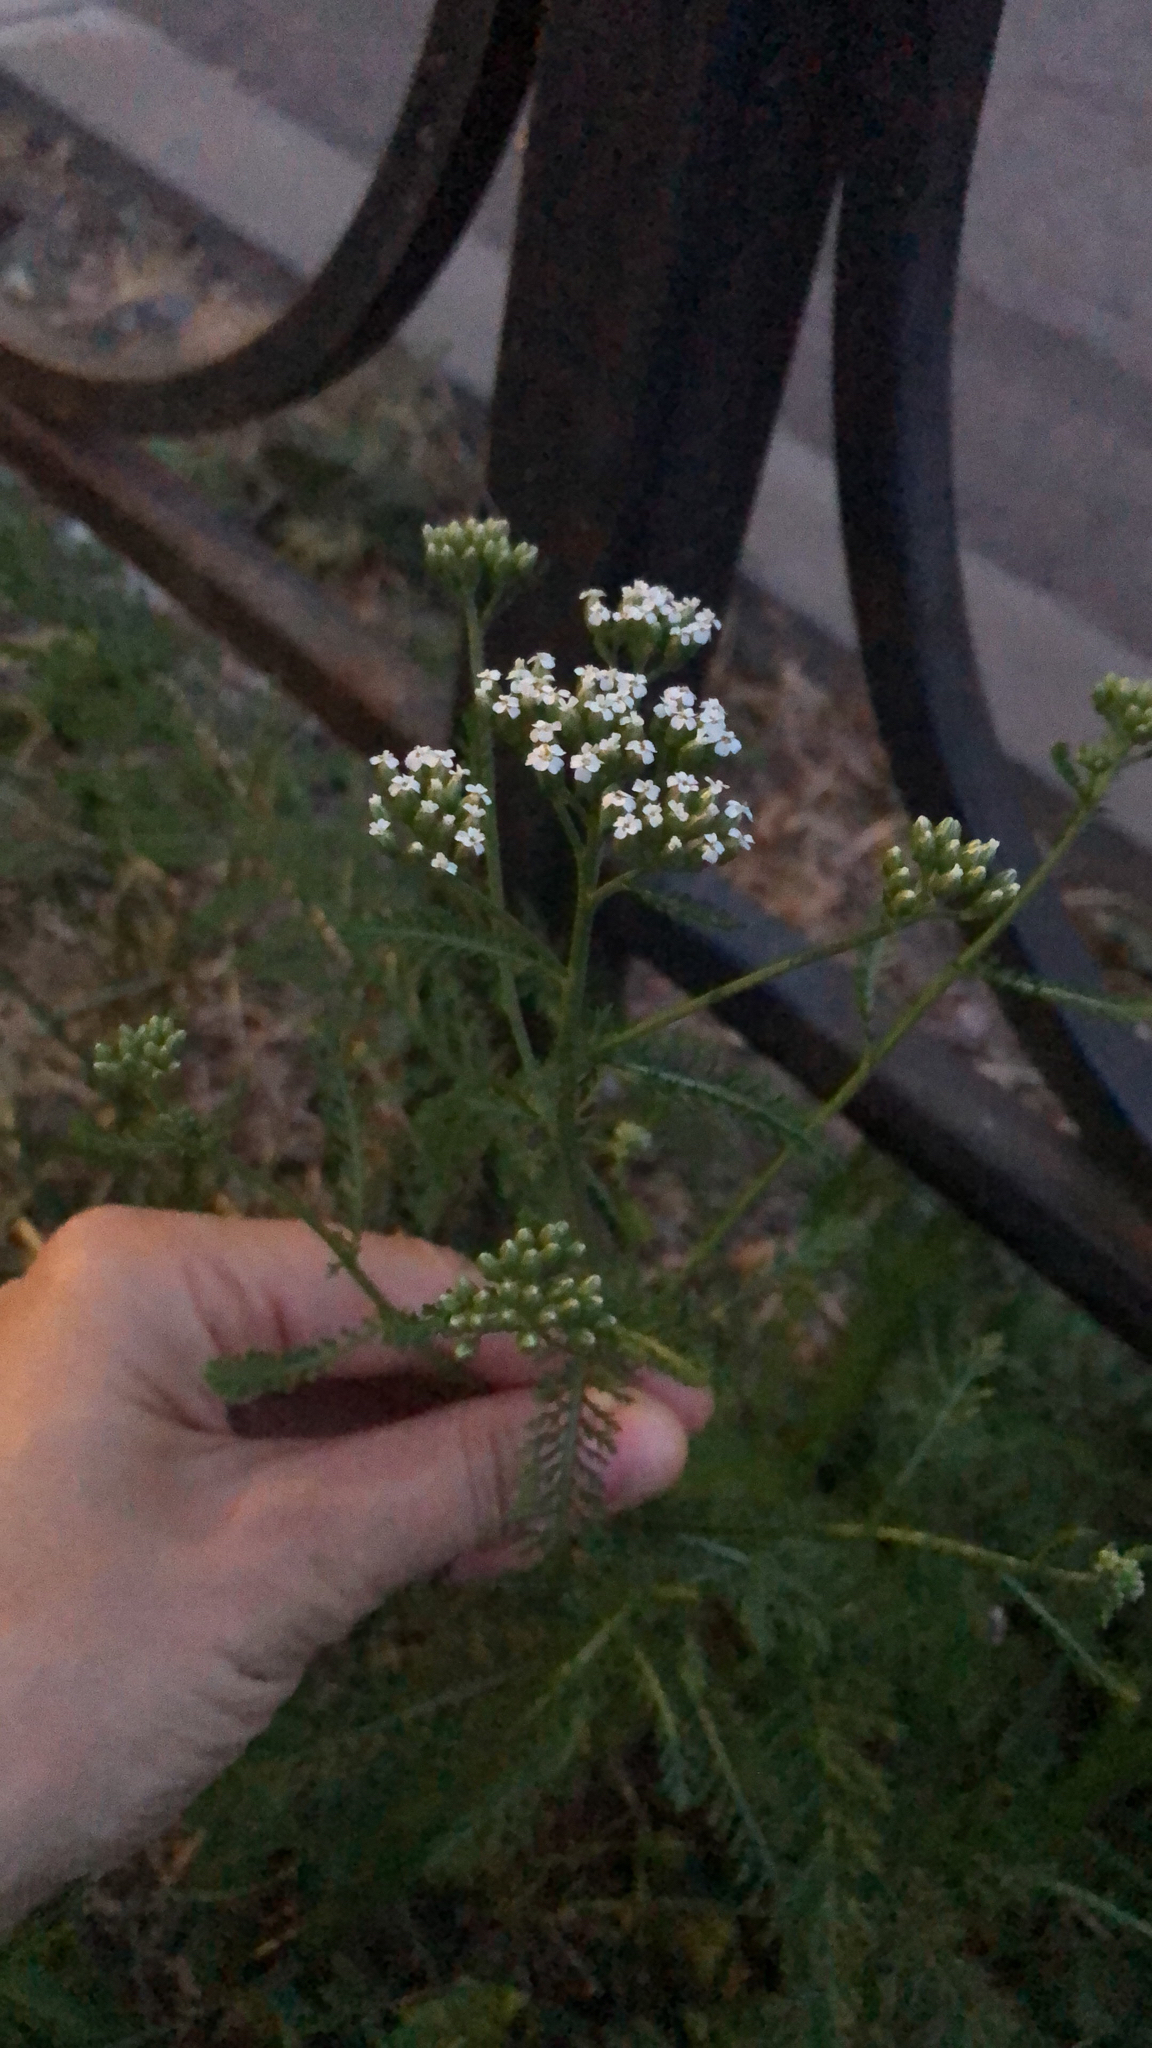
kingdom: Plantae
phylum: Tracheophyta
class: Magnoliopsida
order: Asterales
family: Asteraceae
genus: Achillea
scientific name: Achillea millefolium
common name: Yarrow
